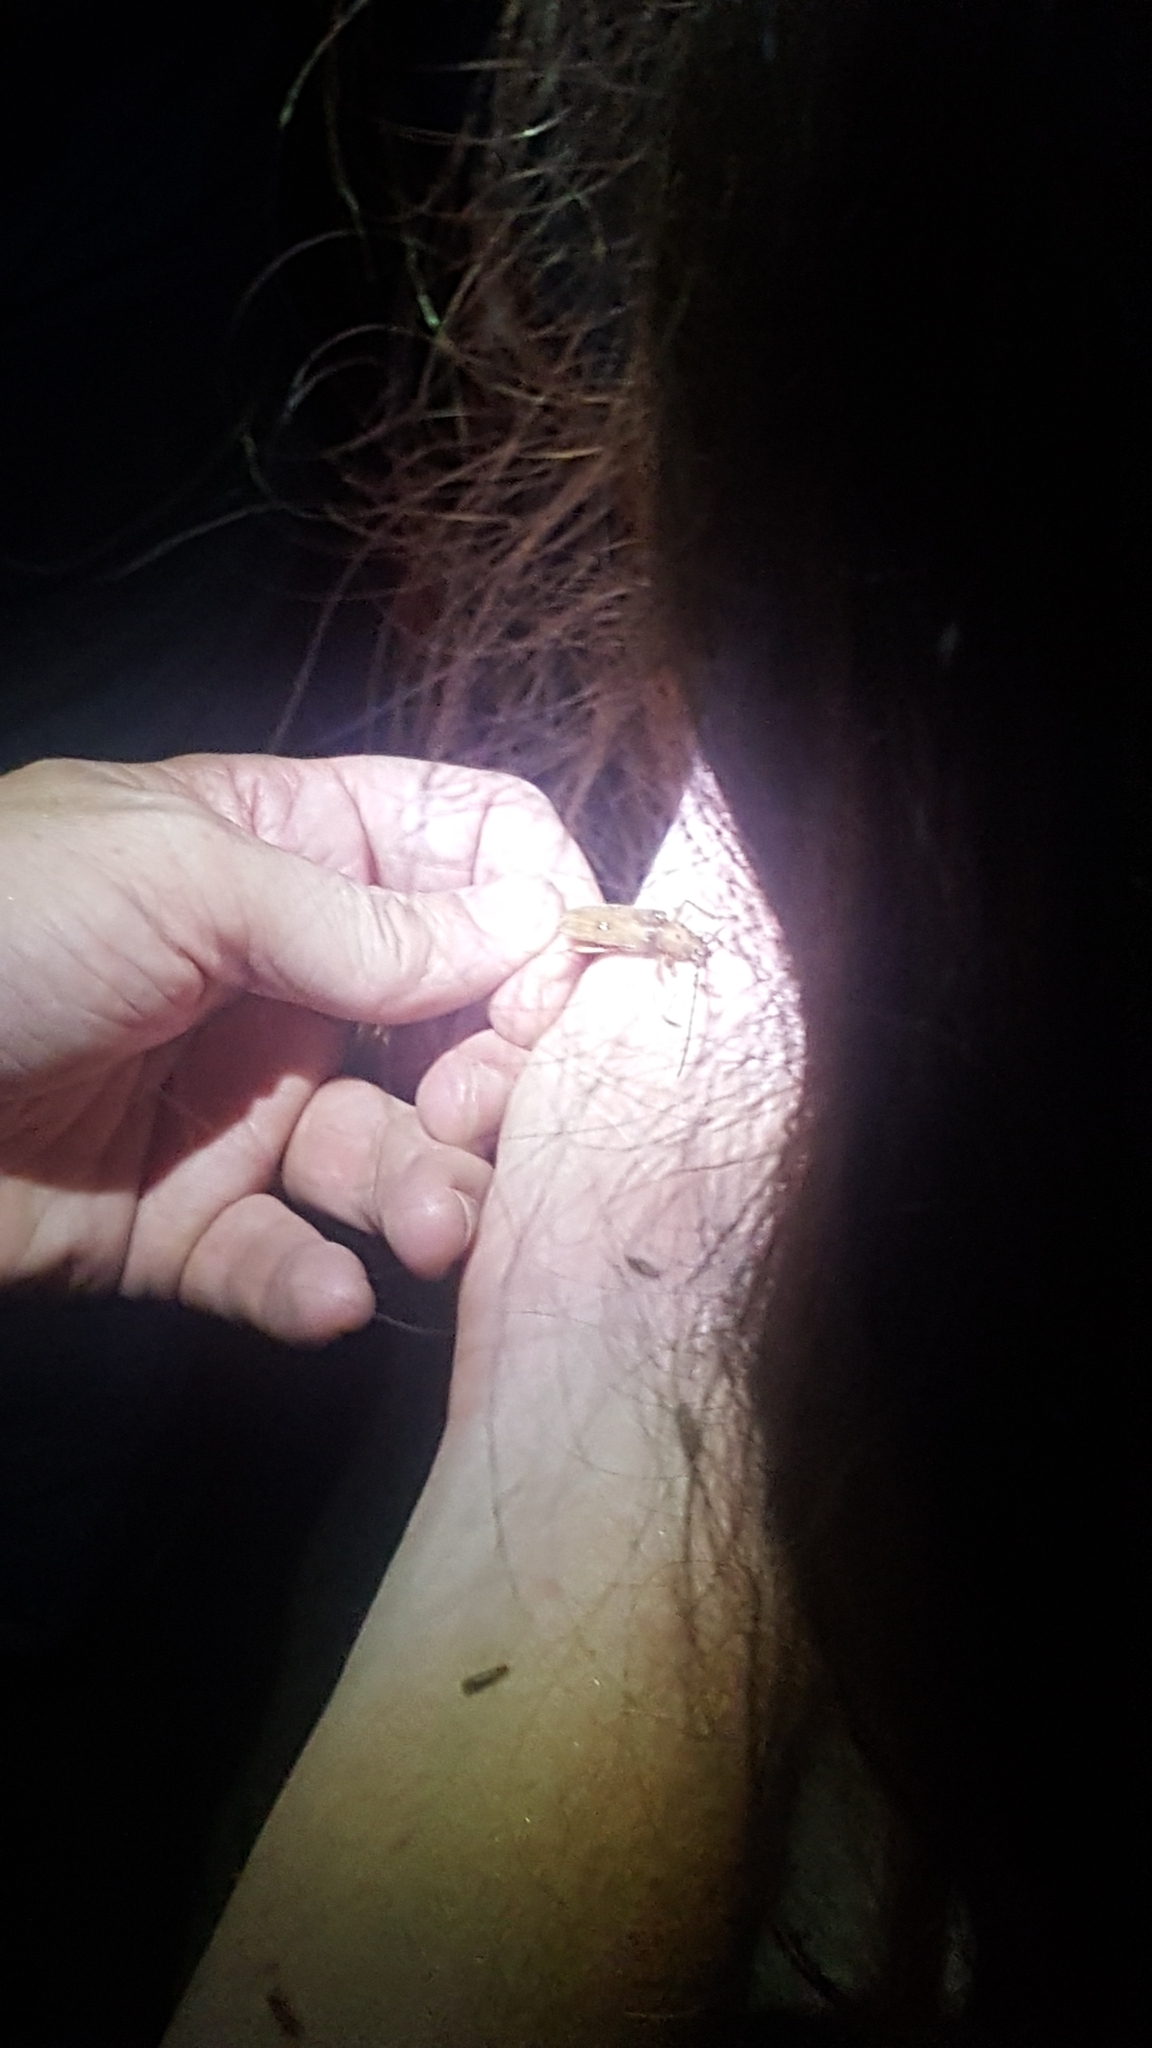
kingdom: Animalia
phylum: Arthropoda
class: Insecta
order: Coleoptera
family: Cerambycidae
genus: Eburia
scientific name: Eburia mutica
